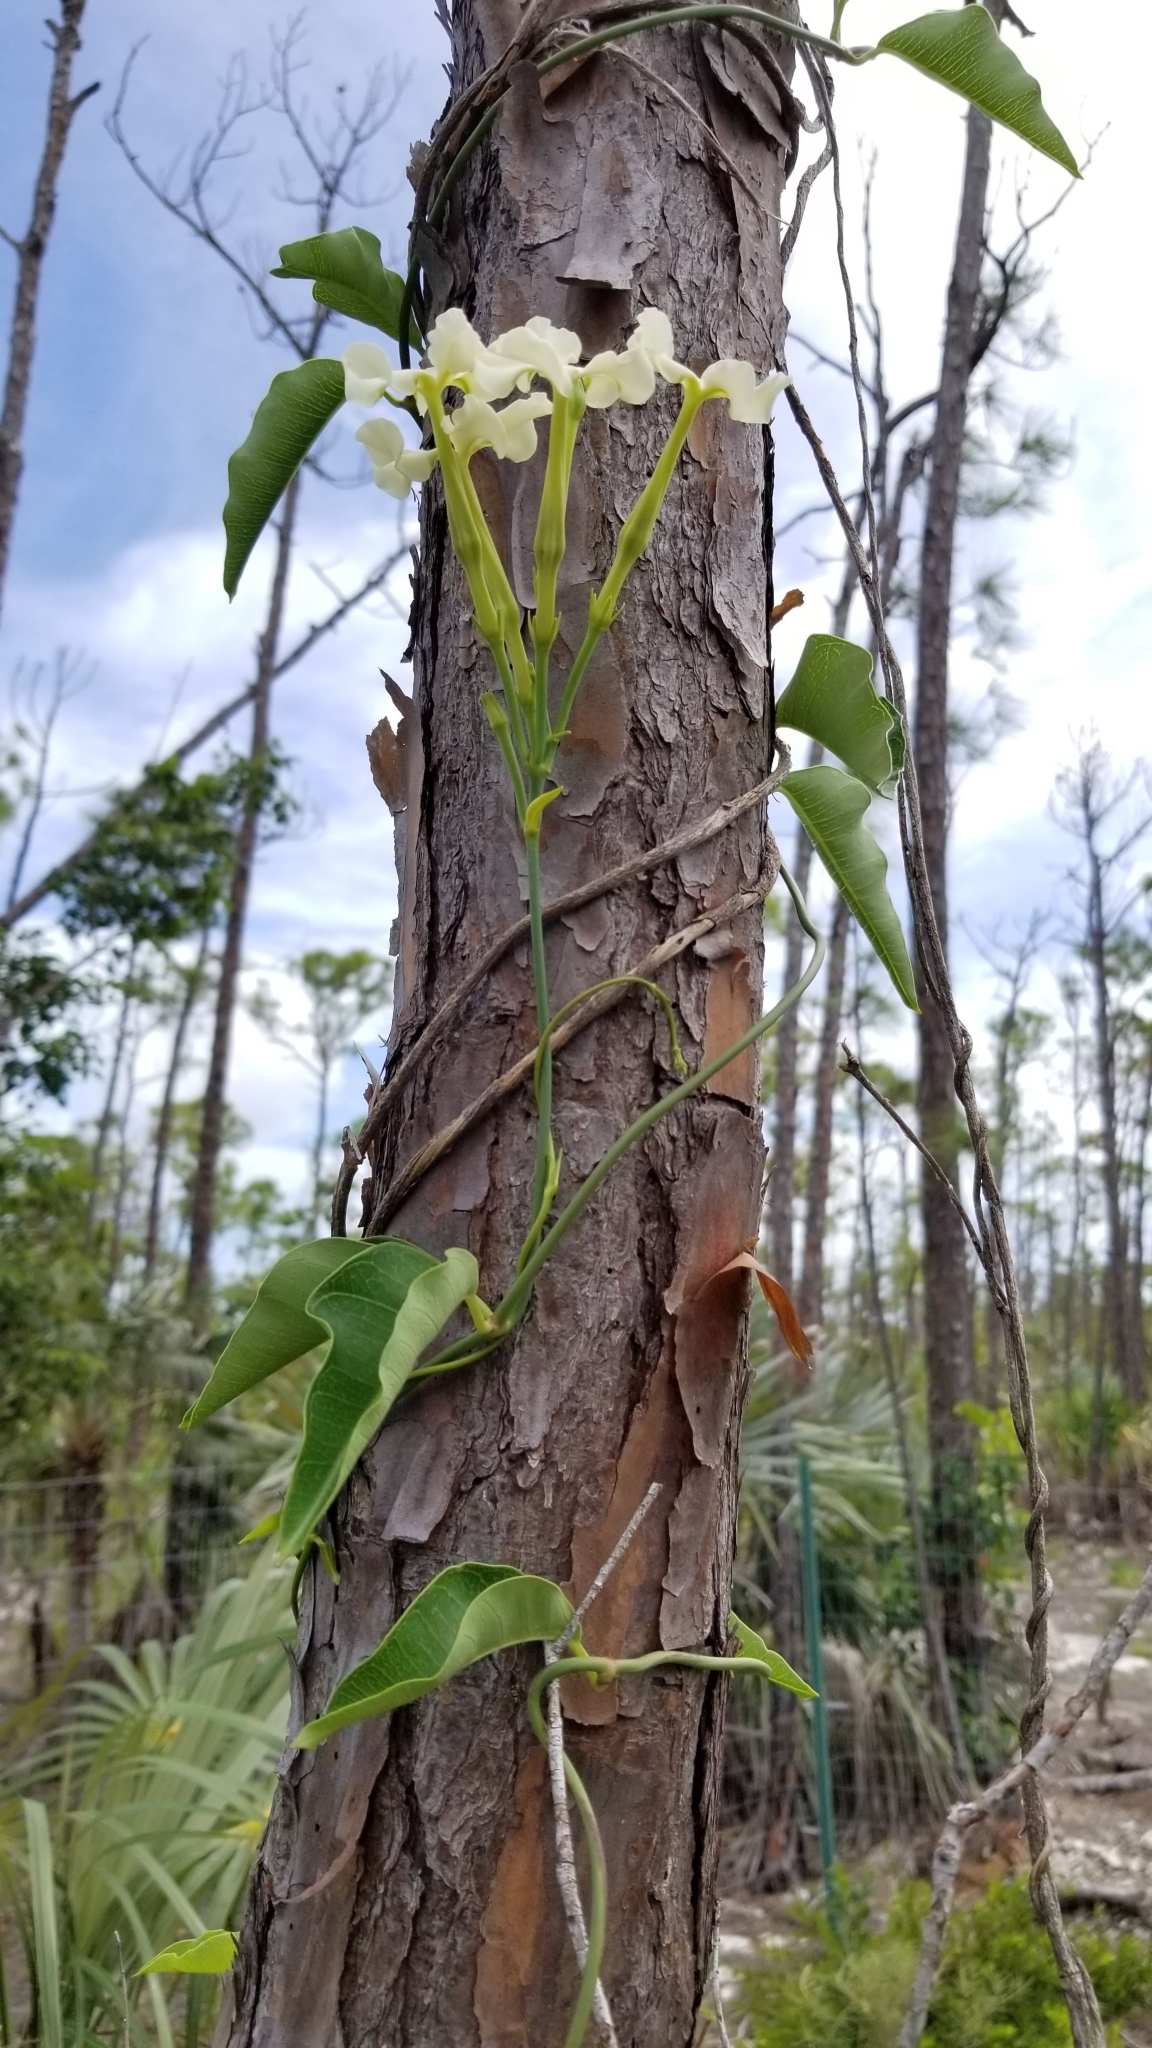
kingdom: Plantae
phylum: Tracheophyta
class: Magnoliopsida
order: Gentianales
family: Apocynaceae
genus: Echites
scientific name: Echites umbellatus
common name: Devil's potato
